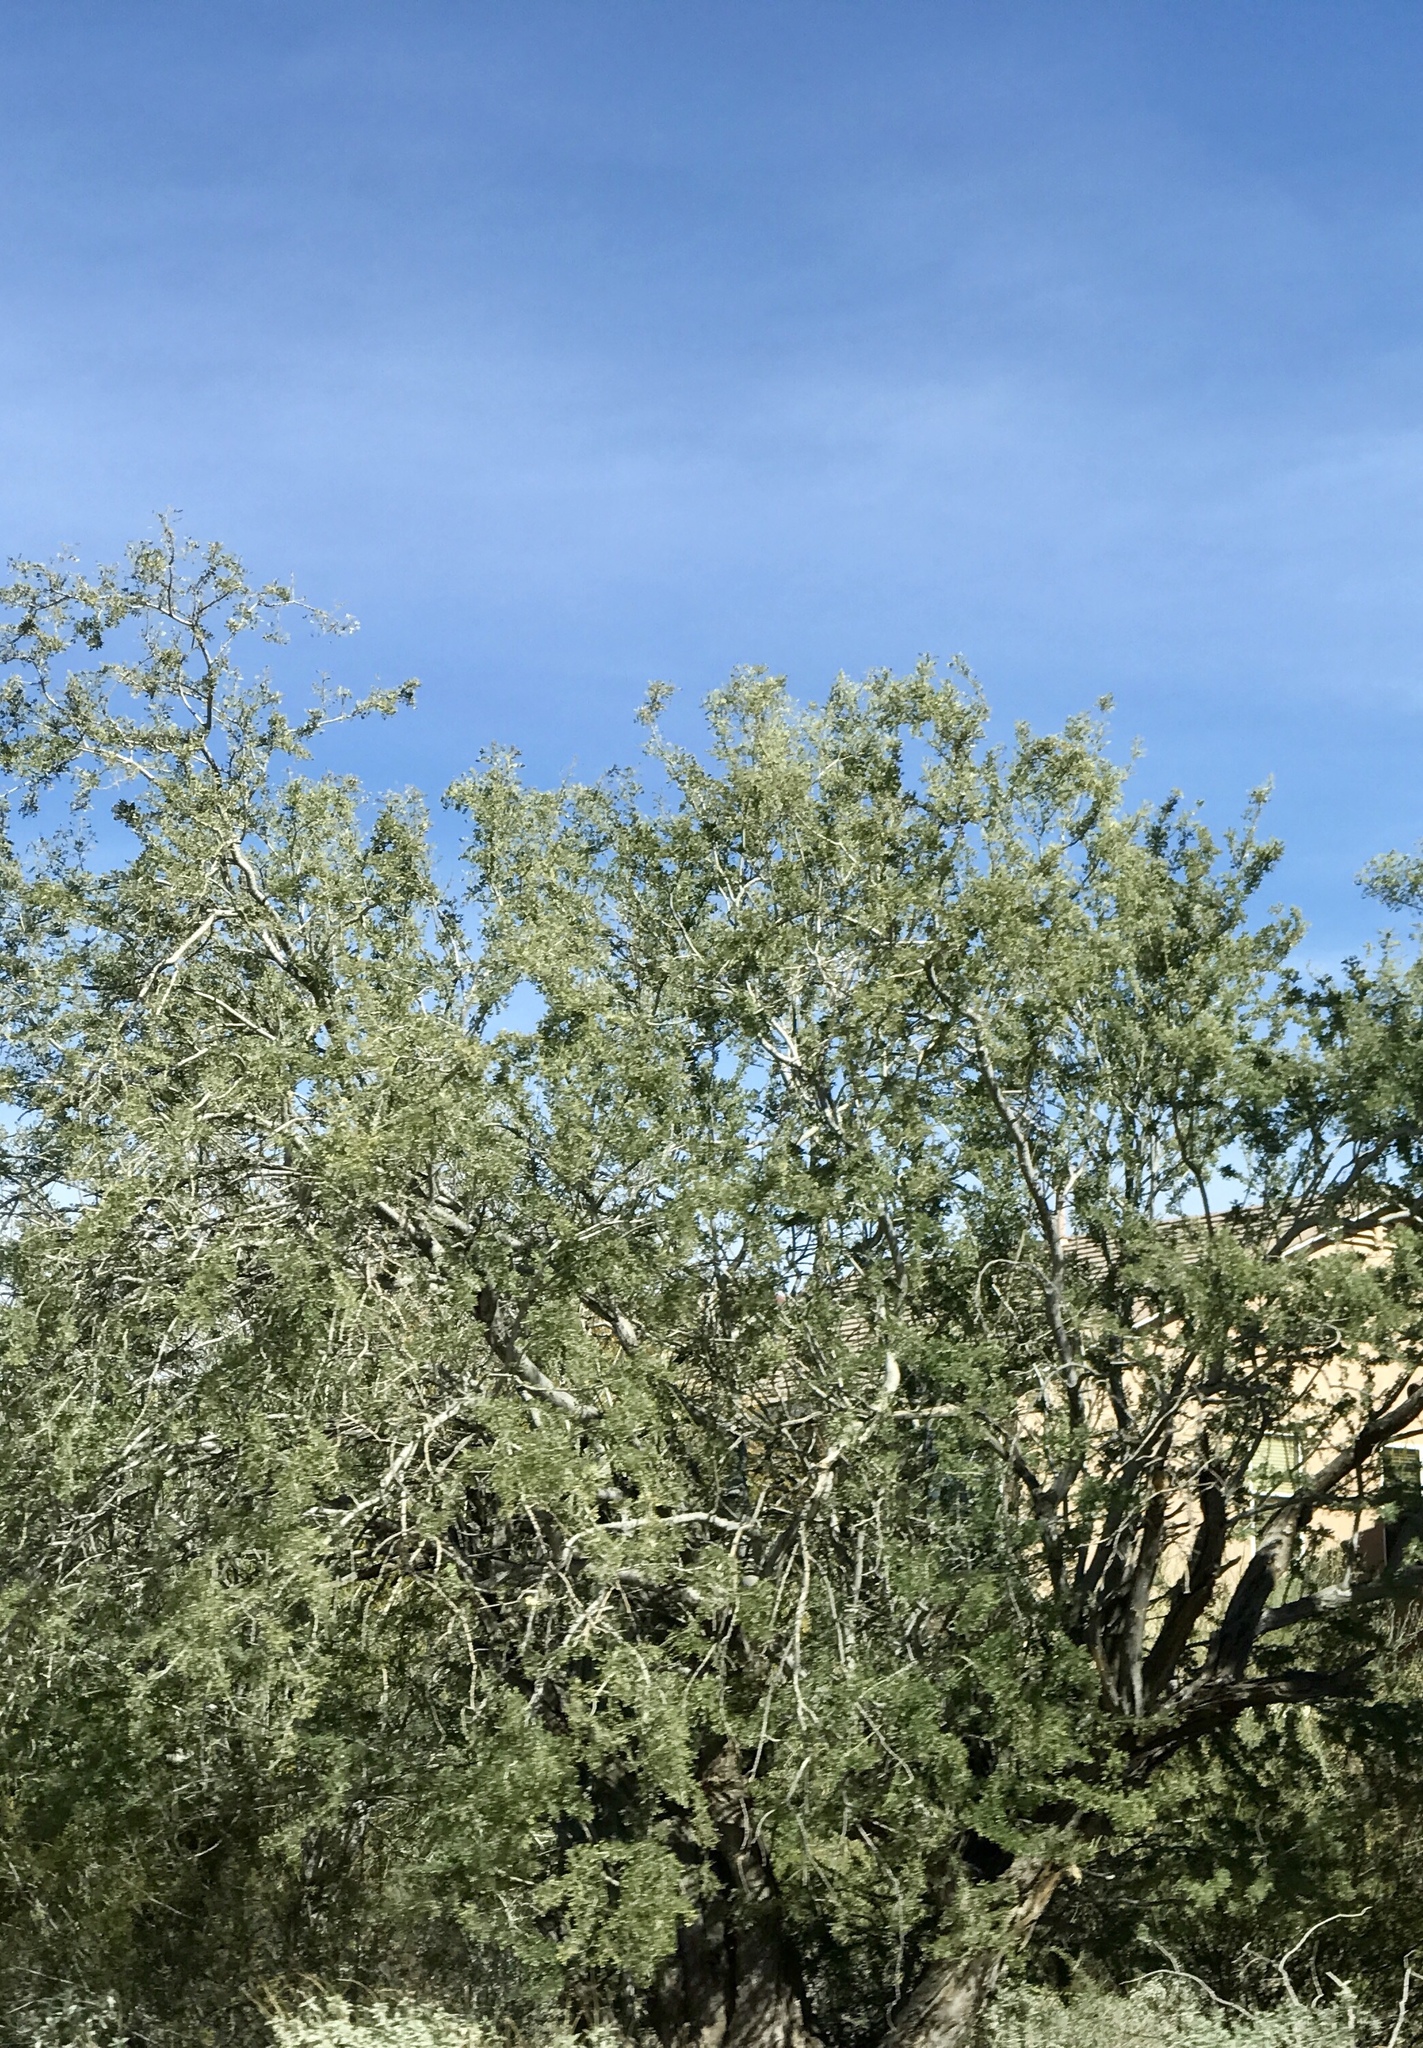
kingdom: Plantae
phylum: Tracheophyta
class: Magnoliopsida
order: Fabales
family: Fabaceae
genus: Olneya
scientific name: Olneya tesota
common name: Desert ironwood
